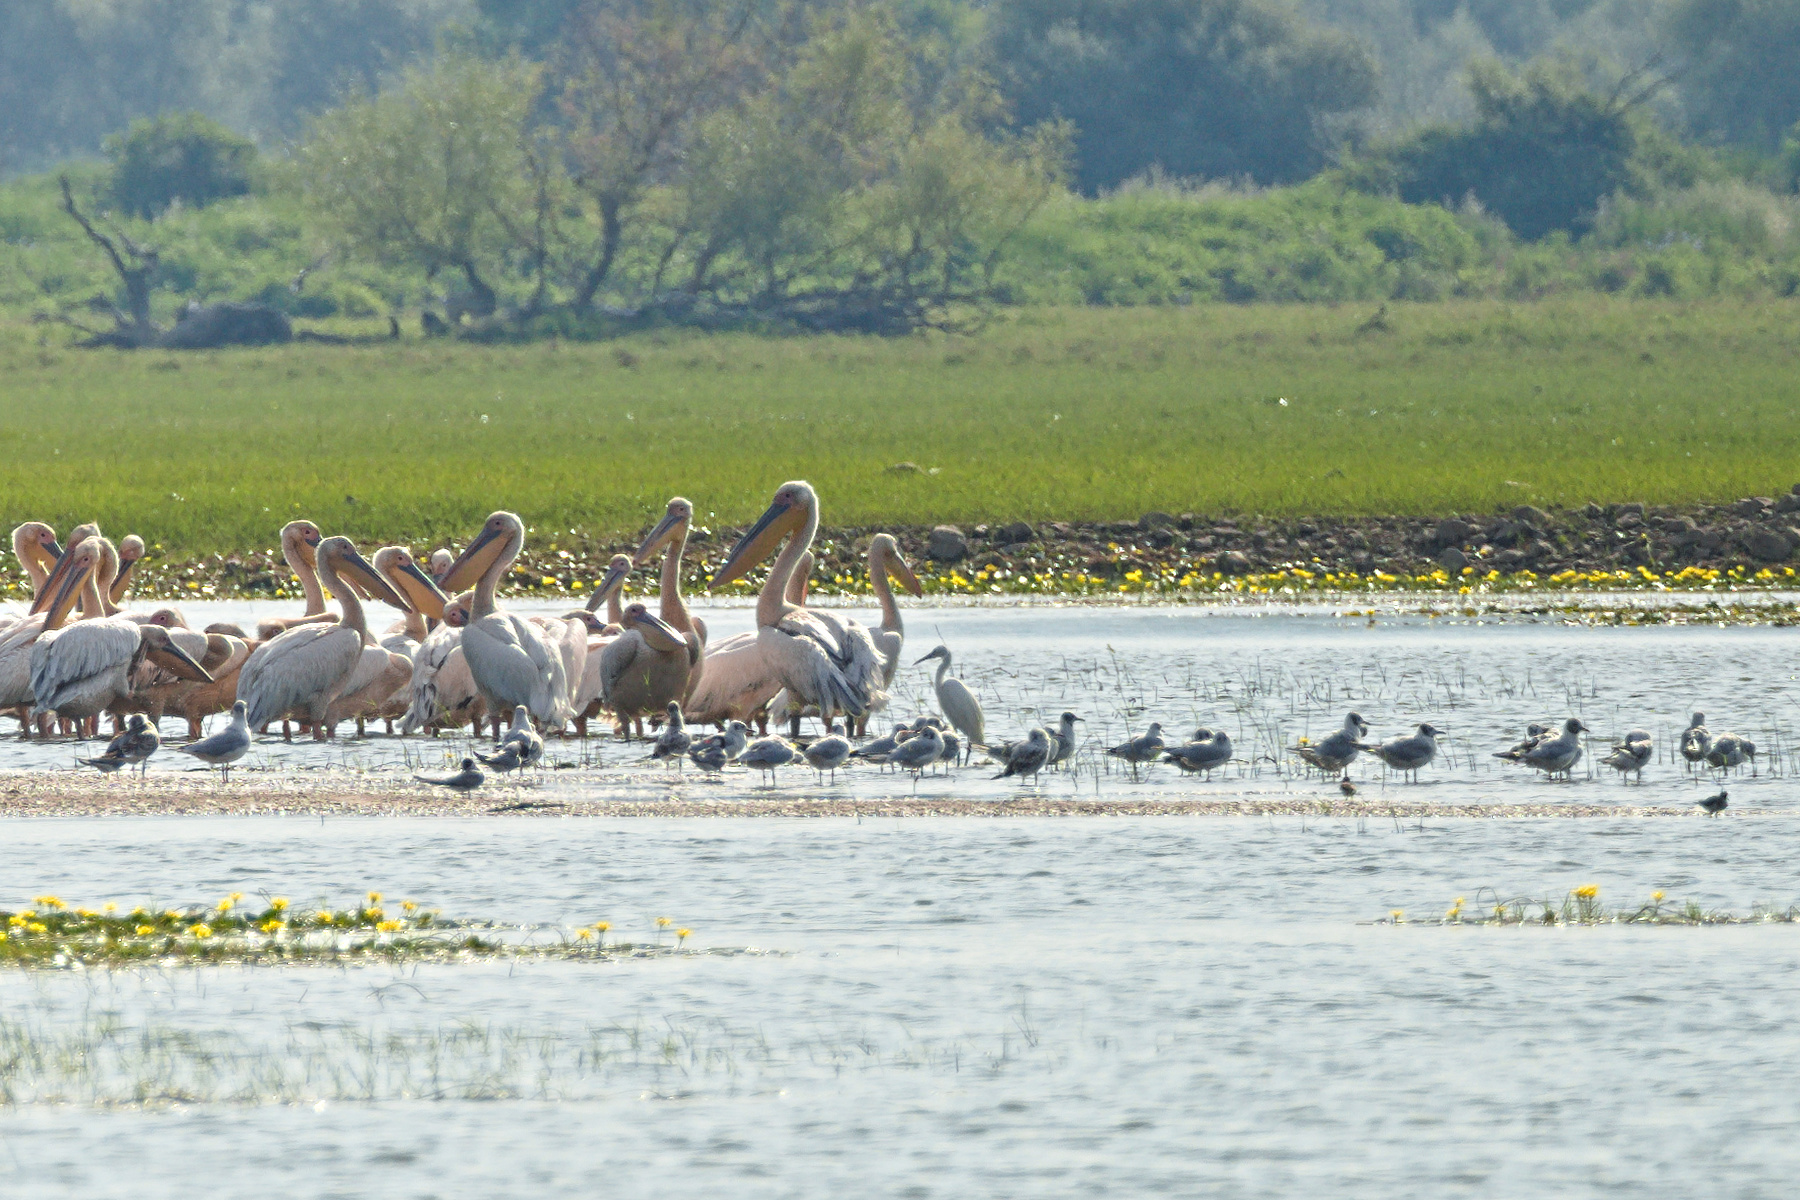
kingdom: Animalia
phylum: Chordata
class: Aves
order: Pelecaniformes
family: Ardeidae
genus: Egretta
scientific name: Egretta garzetta
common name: Little egret
